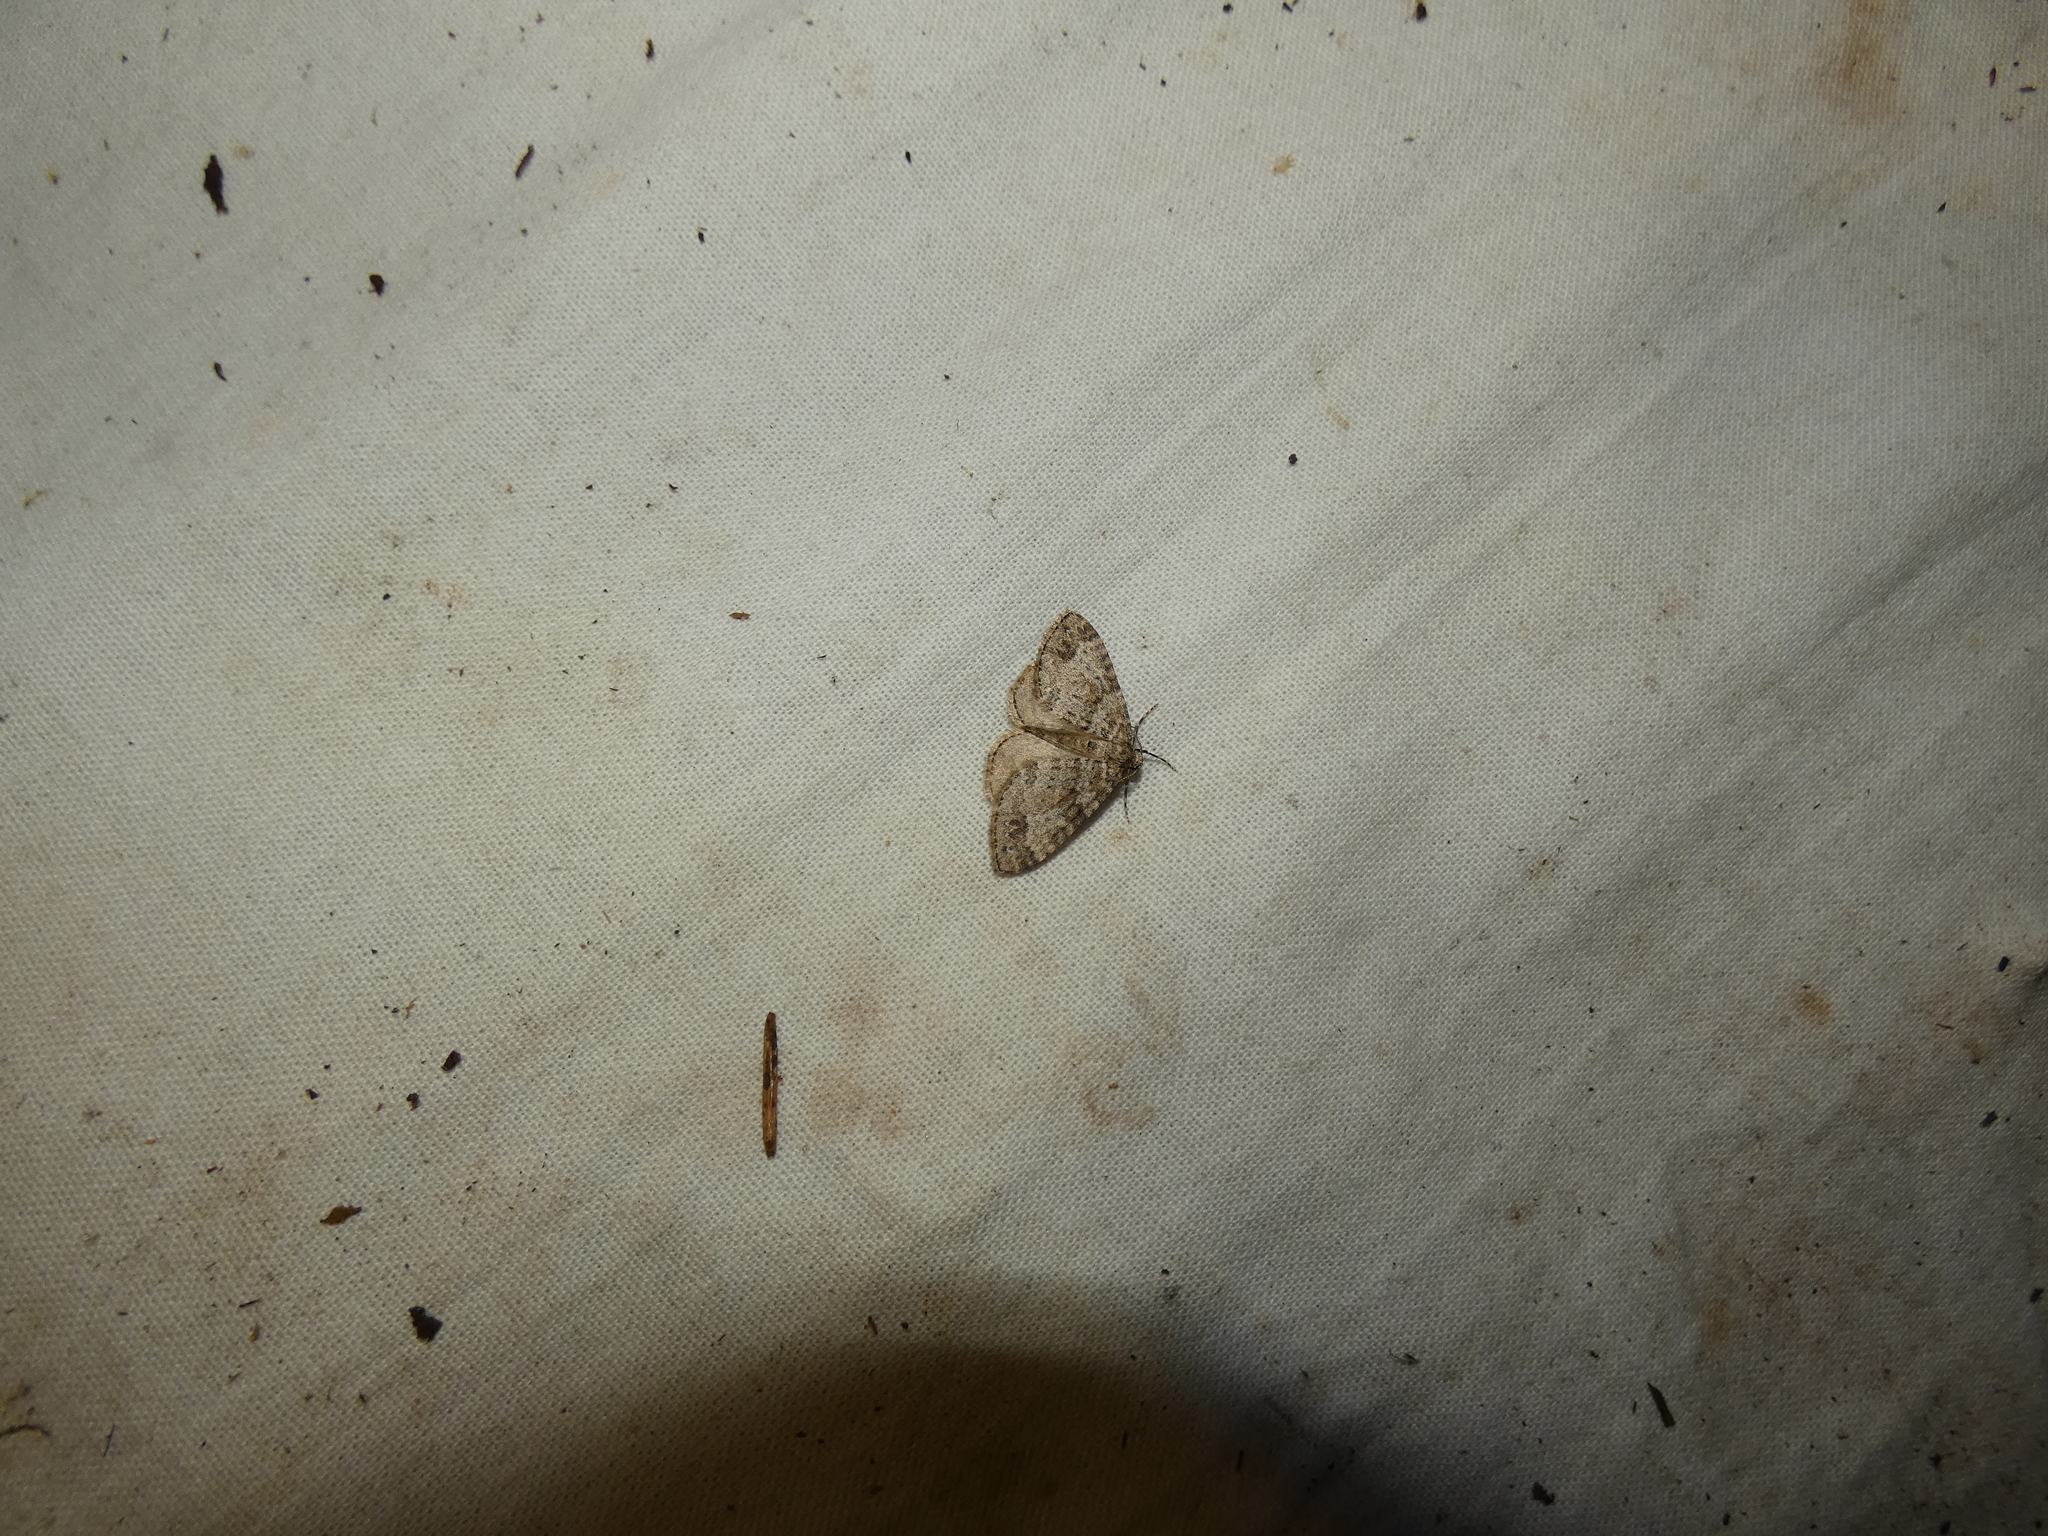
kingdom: Animalia
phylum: Arthropoda
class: Insecta
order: Lepidoptera
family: Geometridae
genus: Perizoma
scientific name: Perizoma didymata
